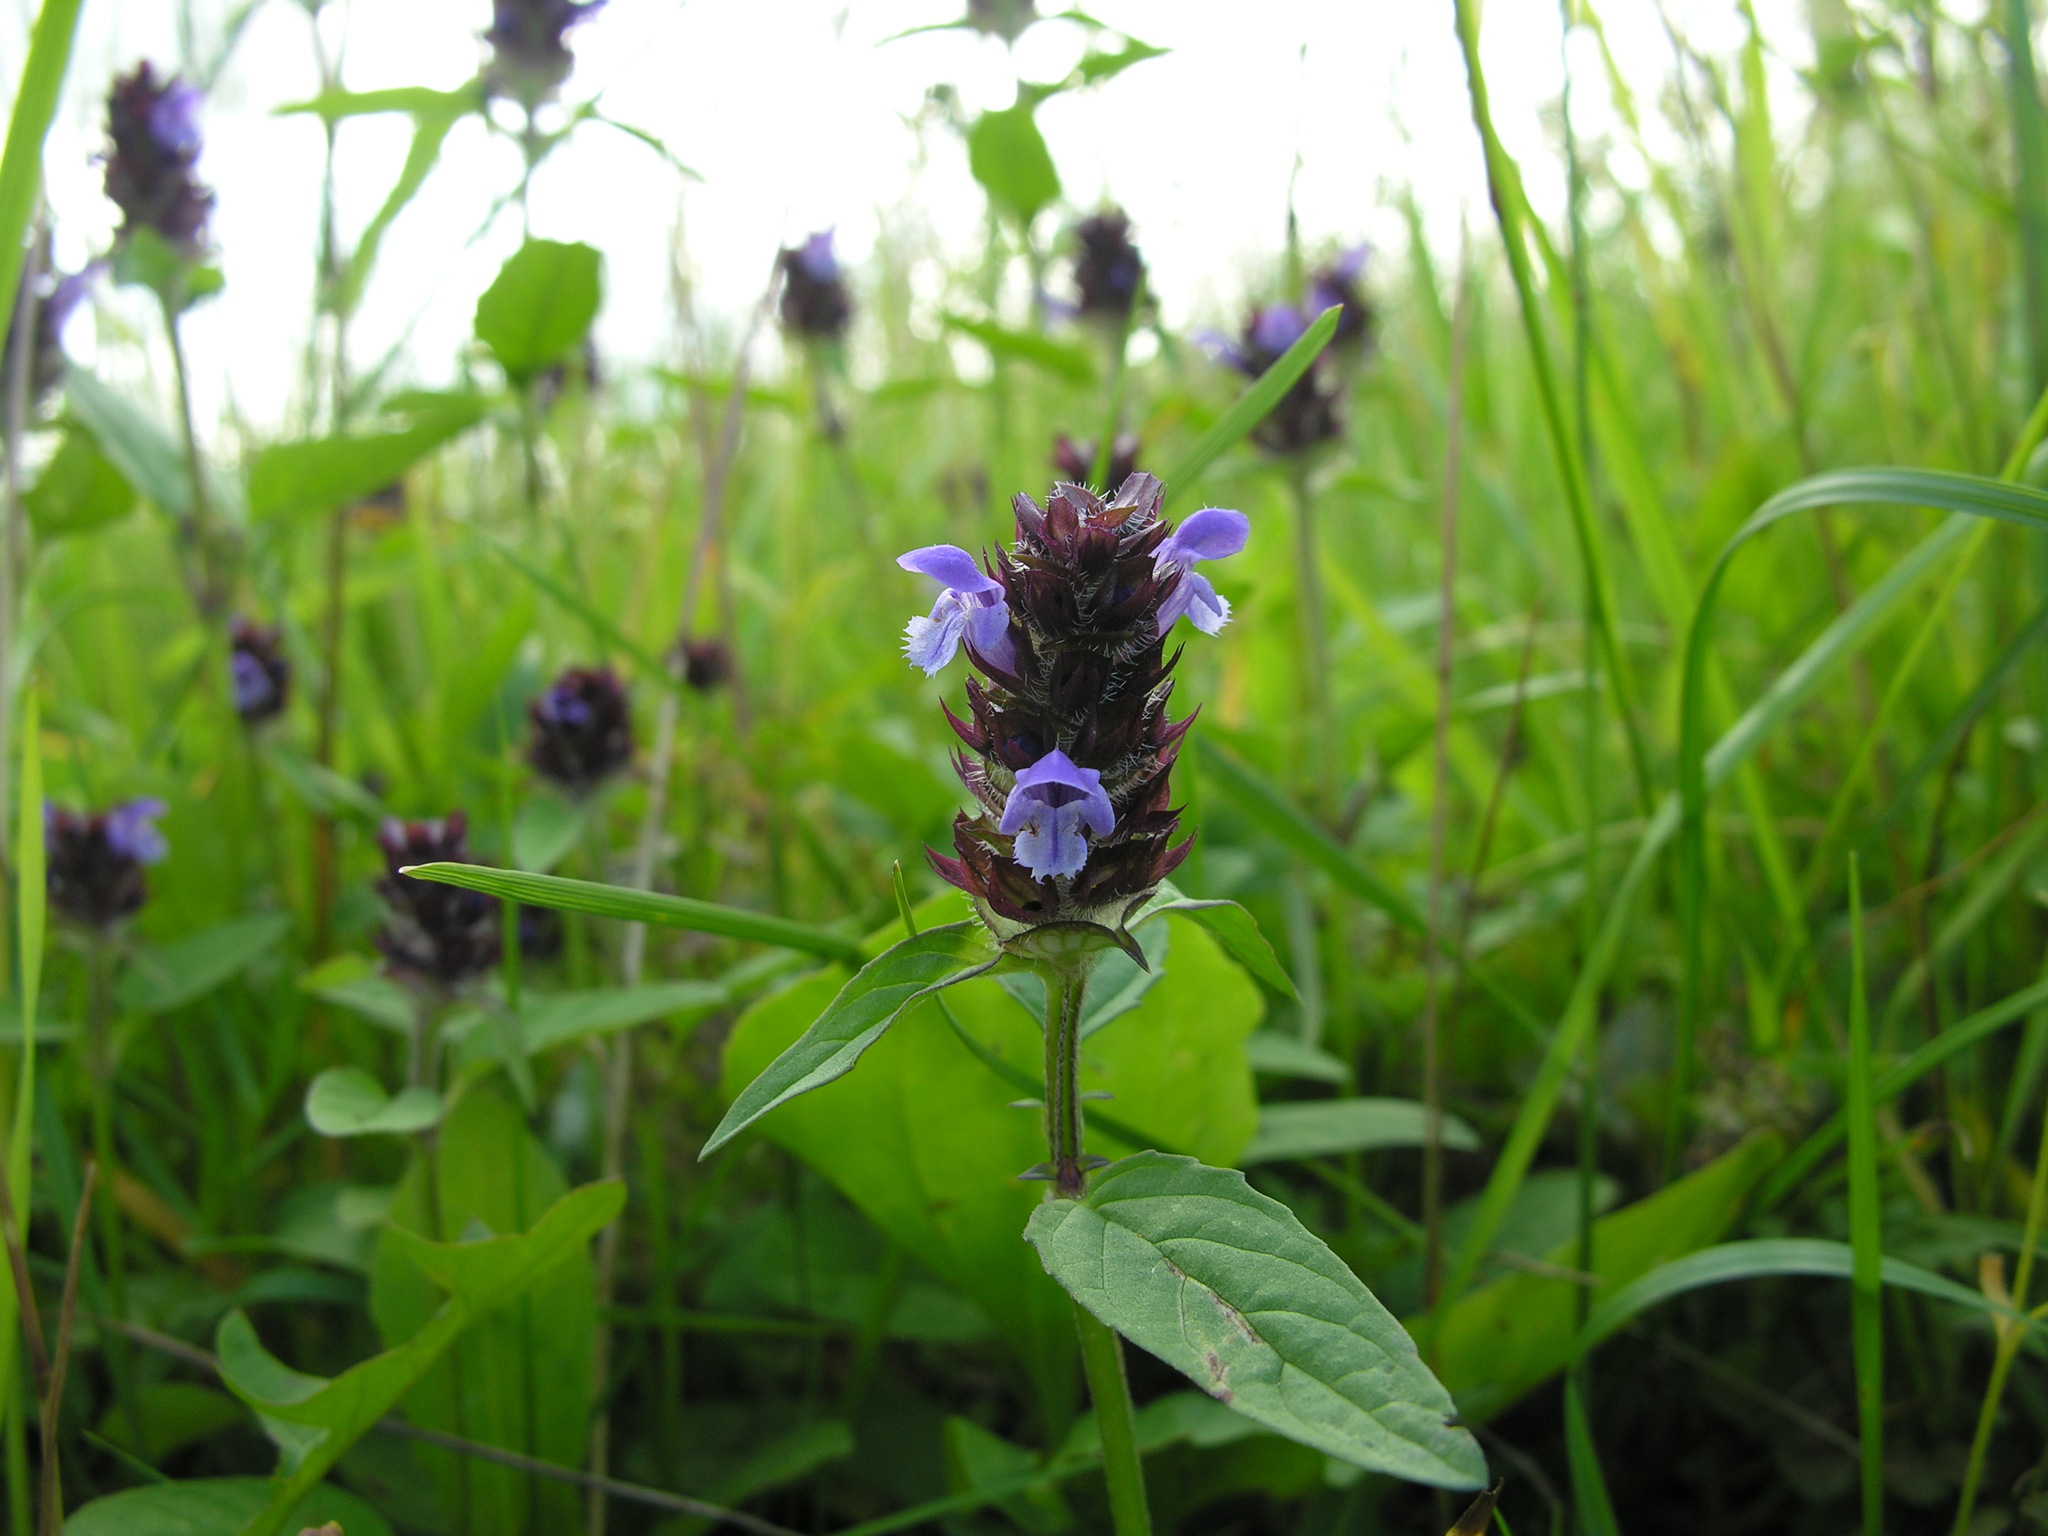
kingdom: Plantae
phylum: Tracheophyta
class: Magnoliopsida
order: Lamiales
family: Lamiaceae
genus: Prunella
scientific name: Prunella vulgaris
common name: Heal-all
